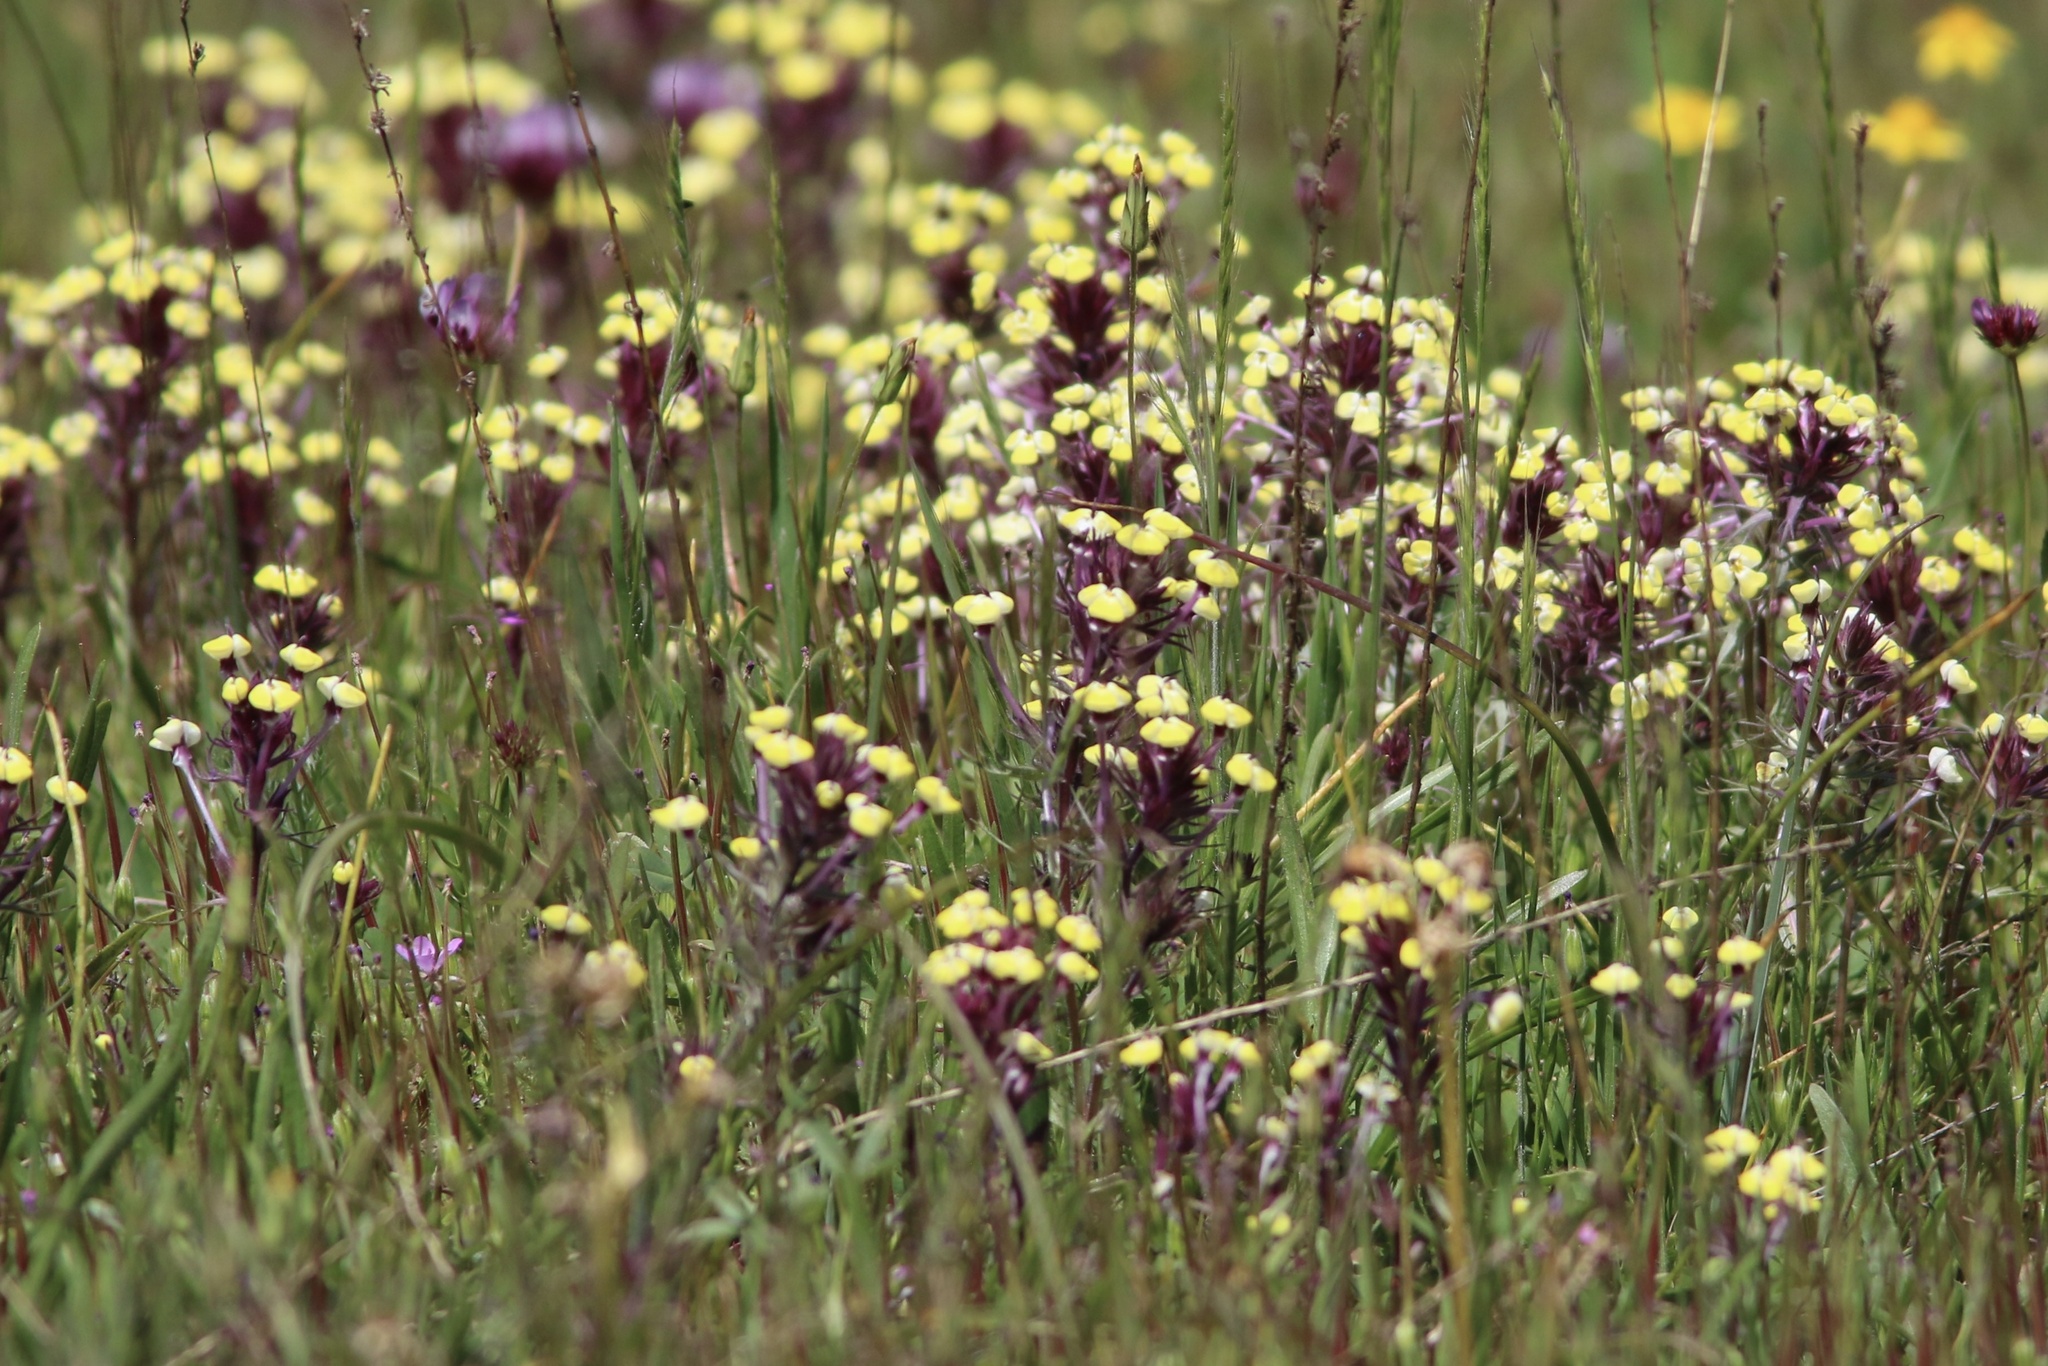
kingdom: Plantae
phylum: Tracheophyta
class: Magnoliopsida
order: Lamiales
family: Orobanchaceae
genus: Triphysaria
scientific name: Triphysaria eriantha
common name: Johnny-tuck
